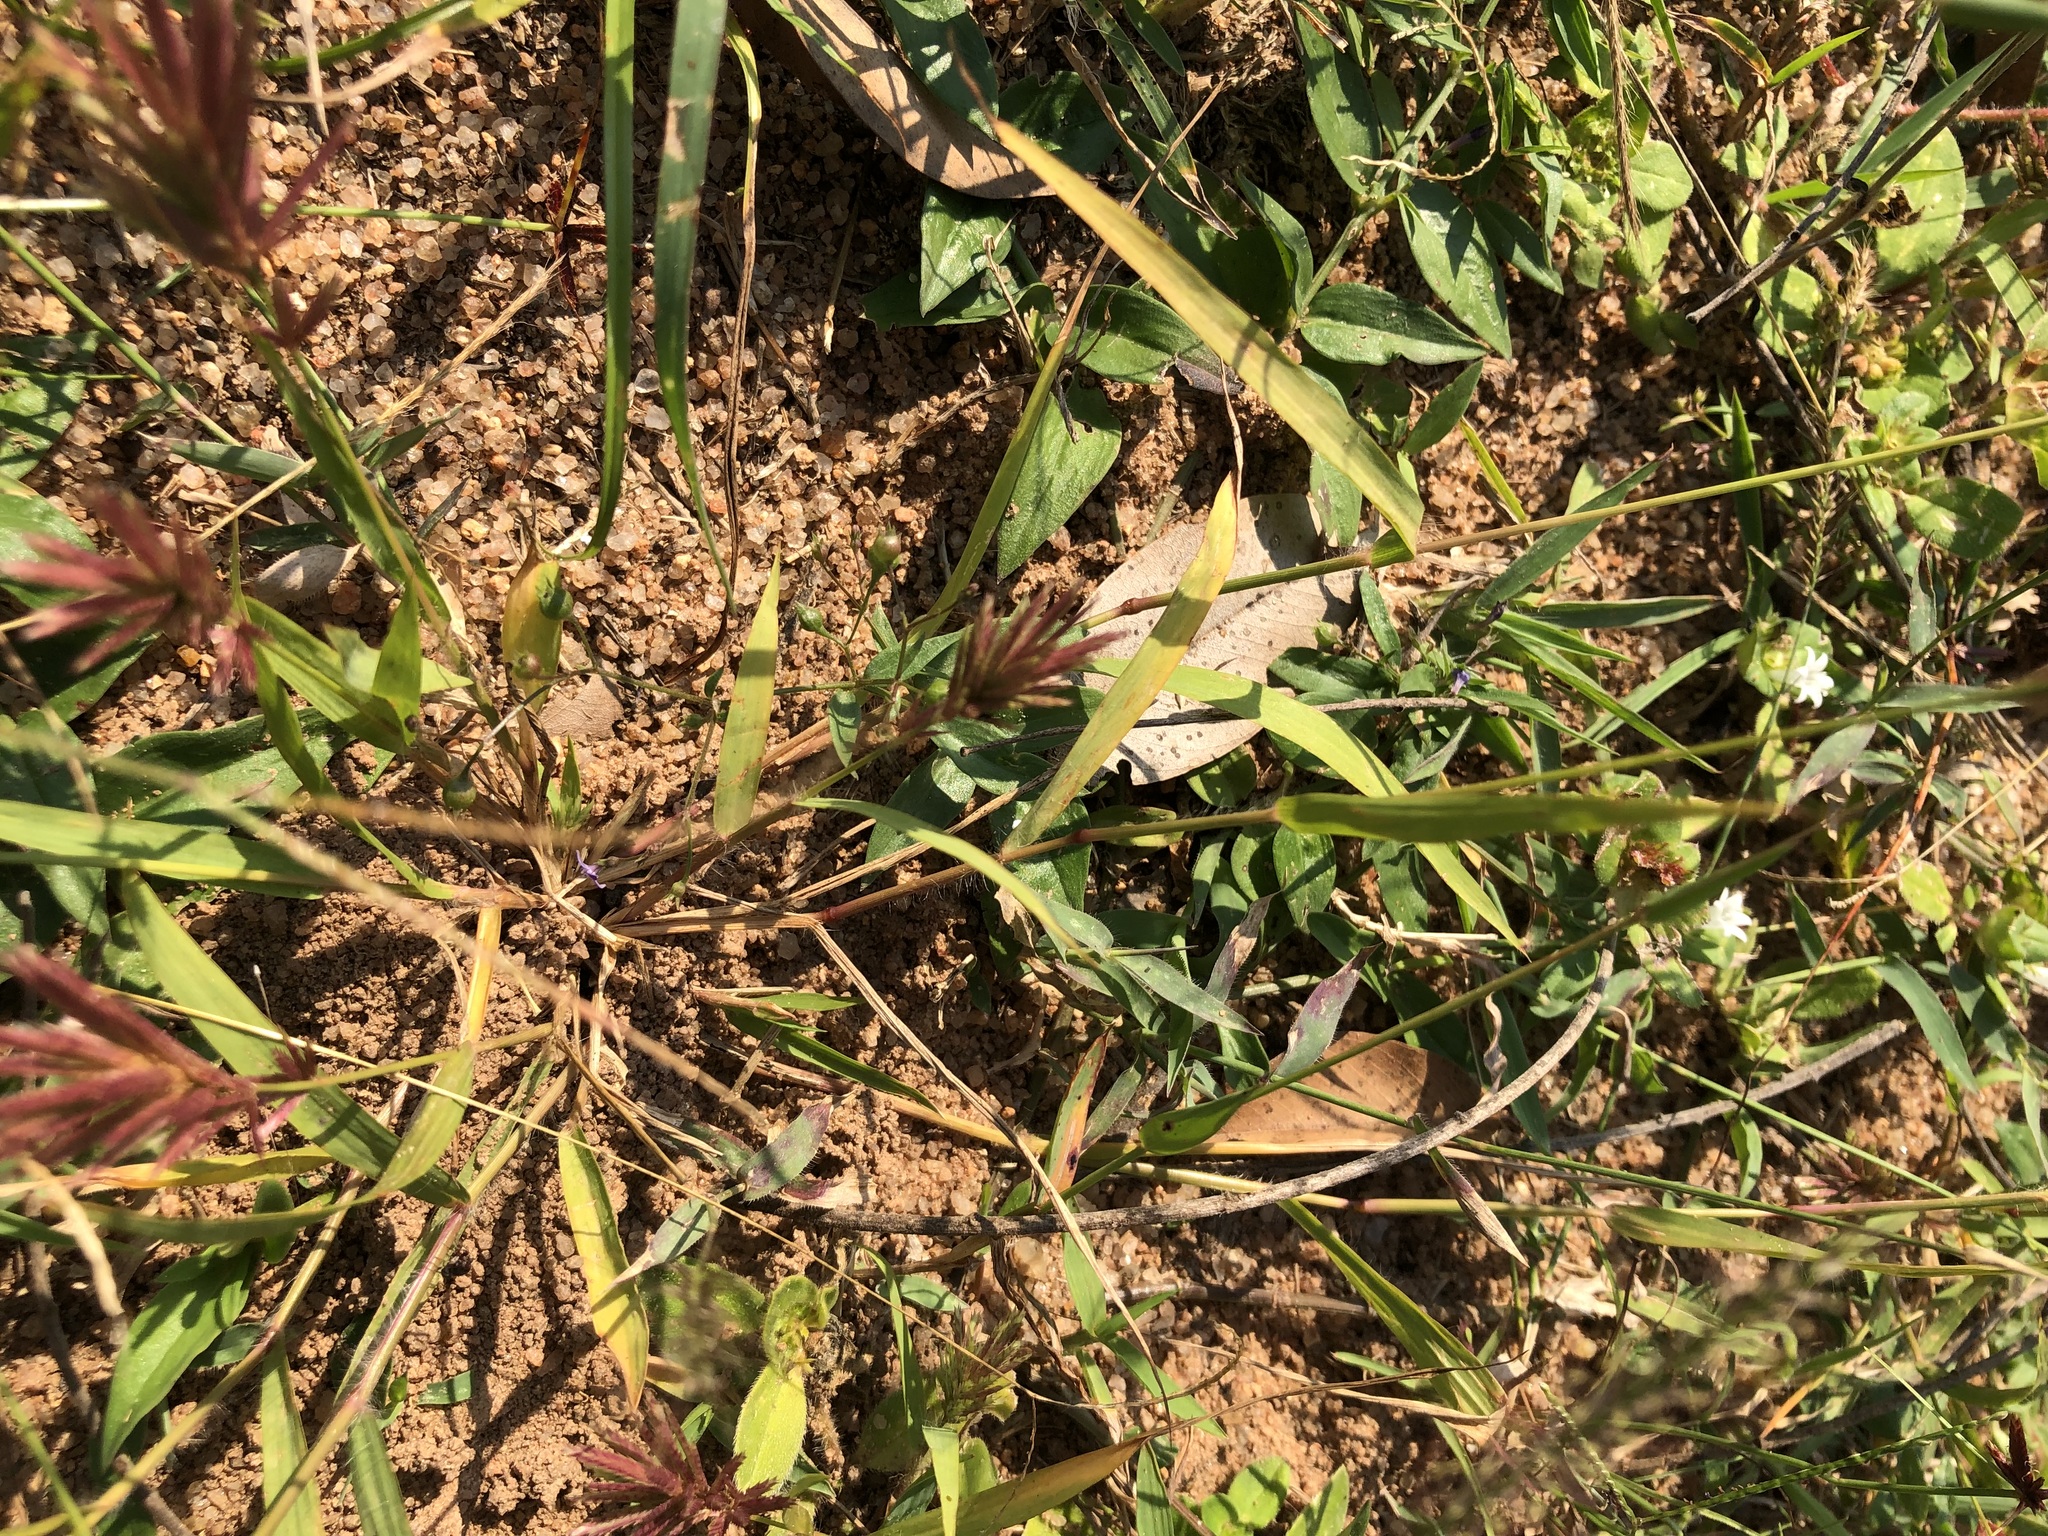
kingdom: Plantae
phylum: Tracheophyta
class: Liliopsida
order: Poales
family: Poaceae
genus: Eragrostis
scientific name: Eragrostis patens
